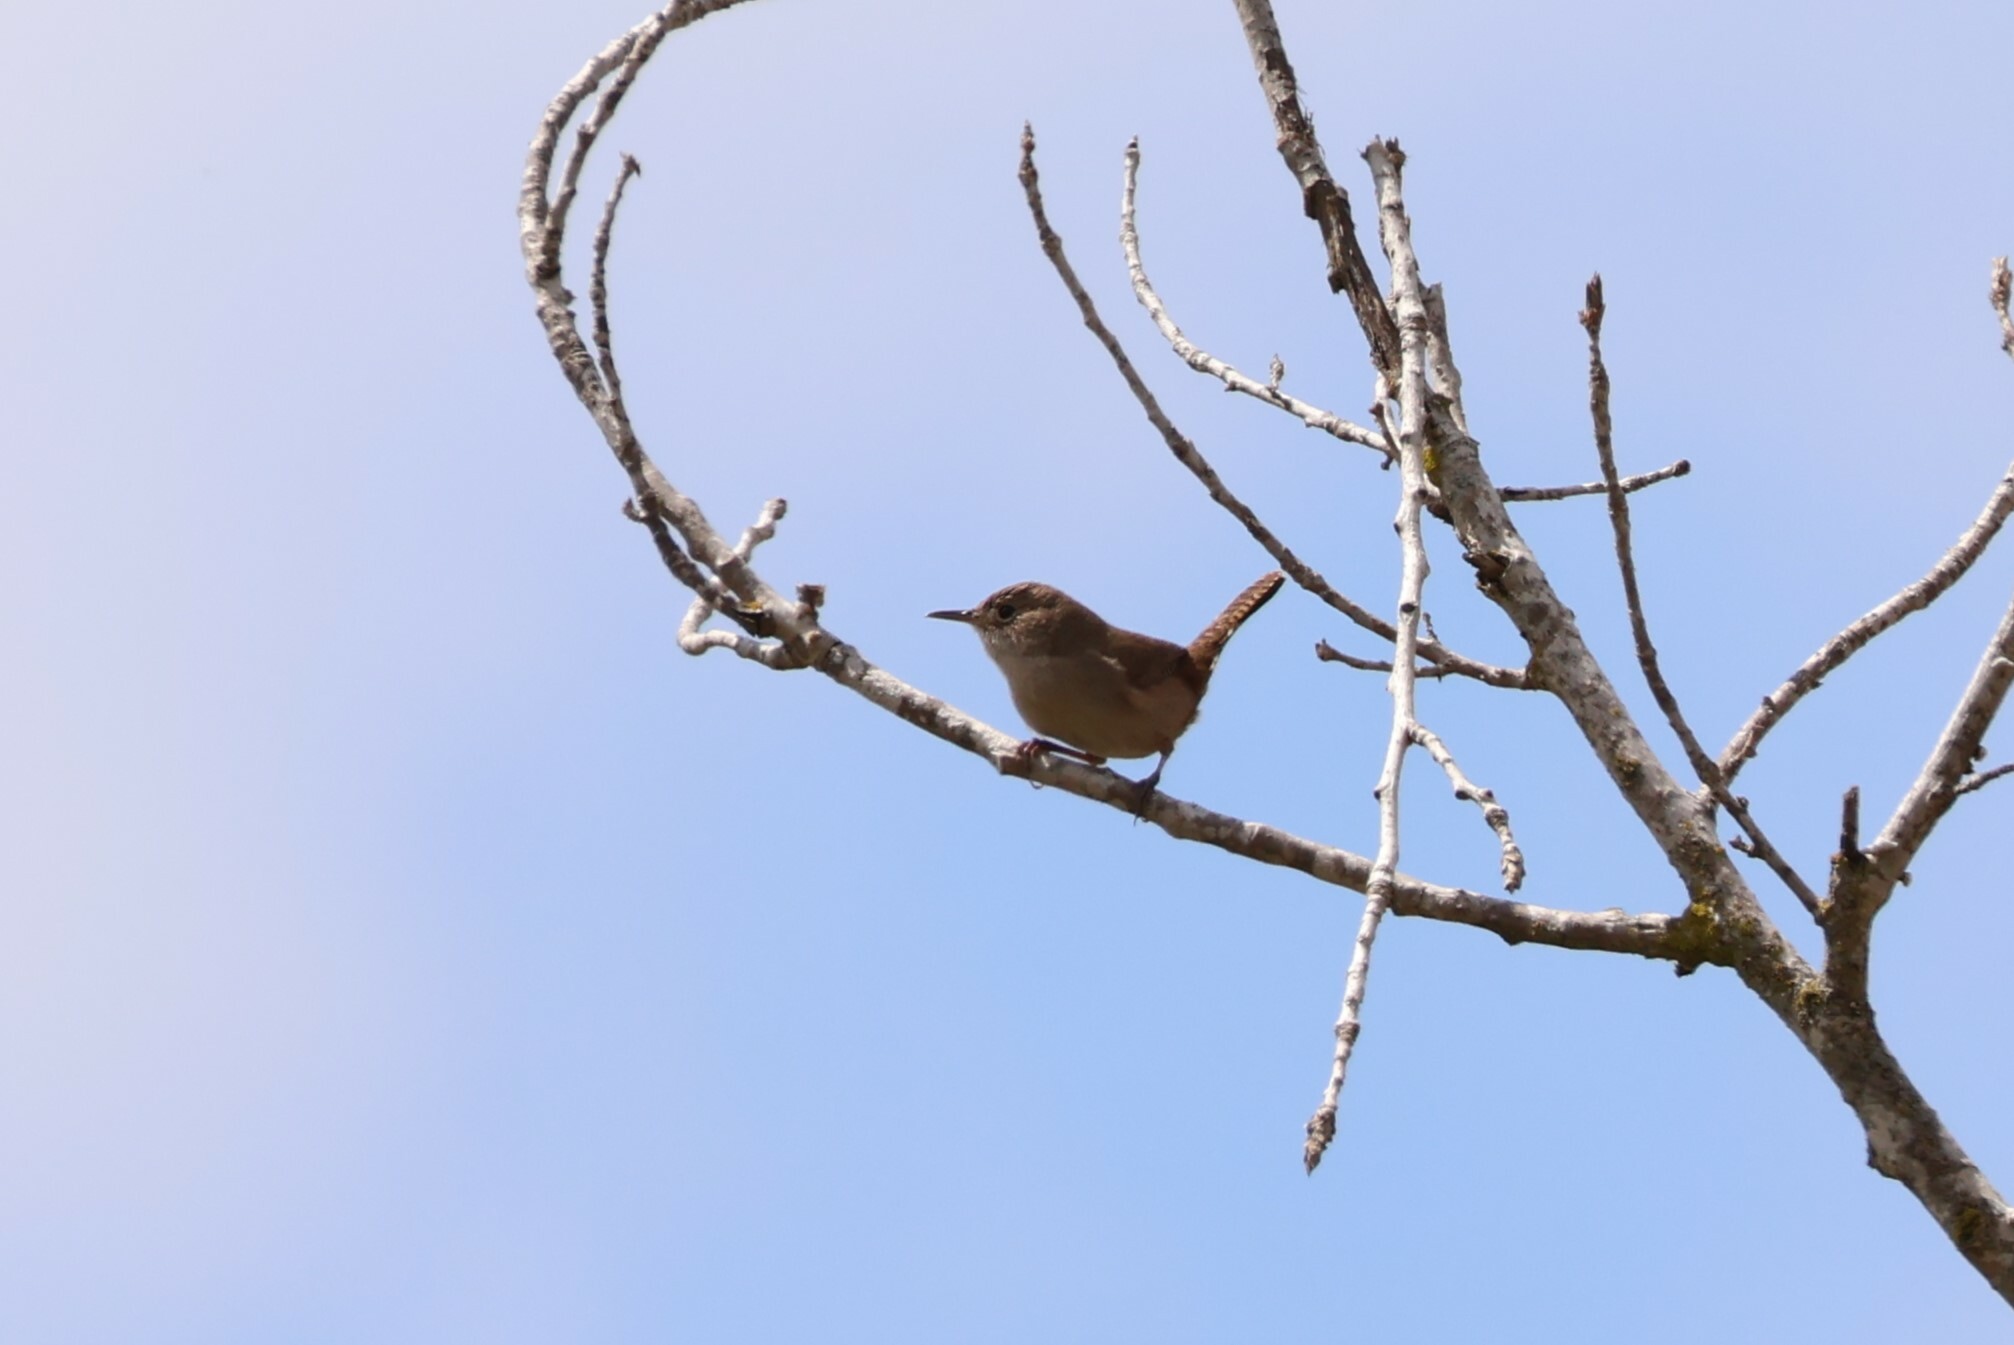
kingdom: Animalia
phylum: Chordata
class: Aves
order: Passeriformes
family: Troglodytidae
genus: Troglodytes
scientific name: Troglodytes aedon
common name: House wren
